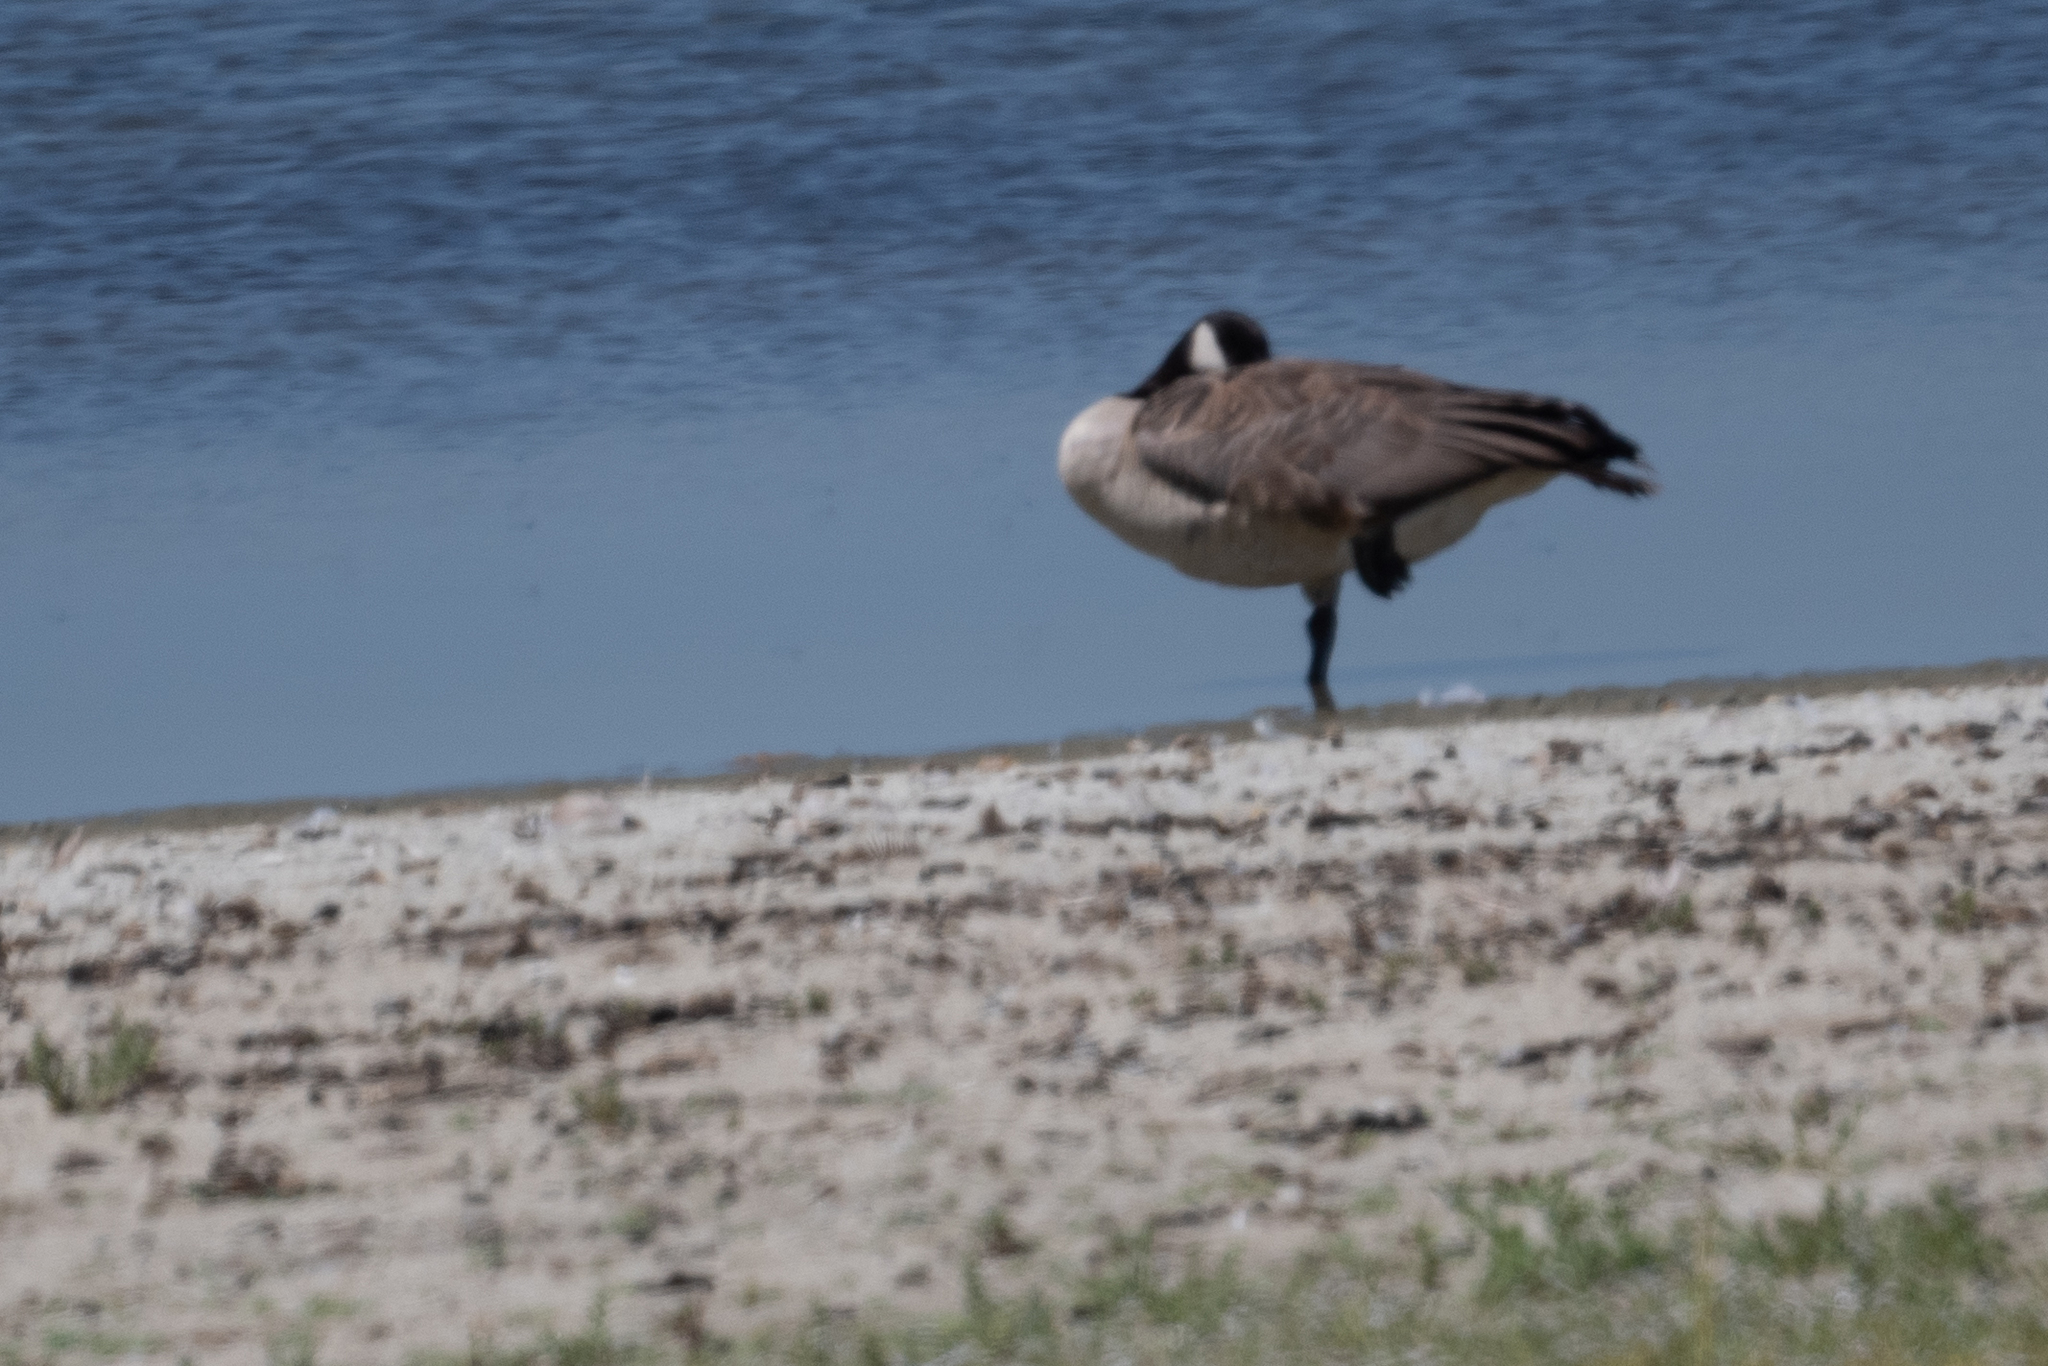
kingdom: Animalia
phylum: Chordata
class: Aves
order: Anseriformes
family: Anatidae
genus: Branta
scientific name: Branta canadensis
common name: Canada goose
